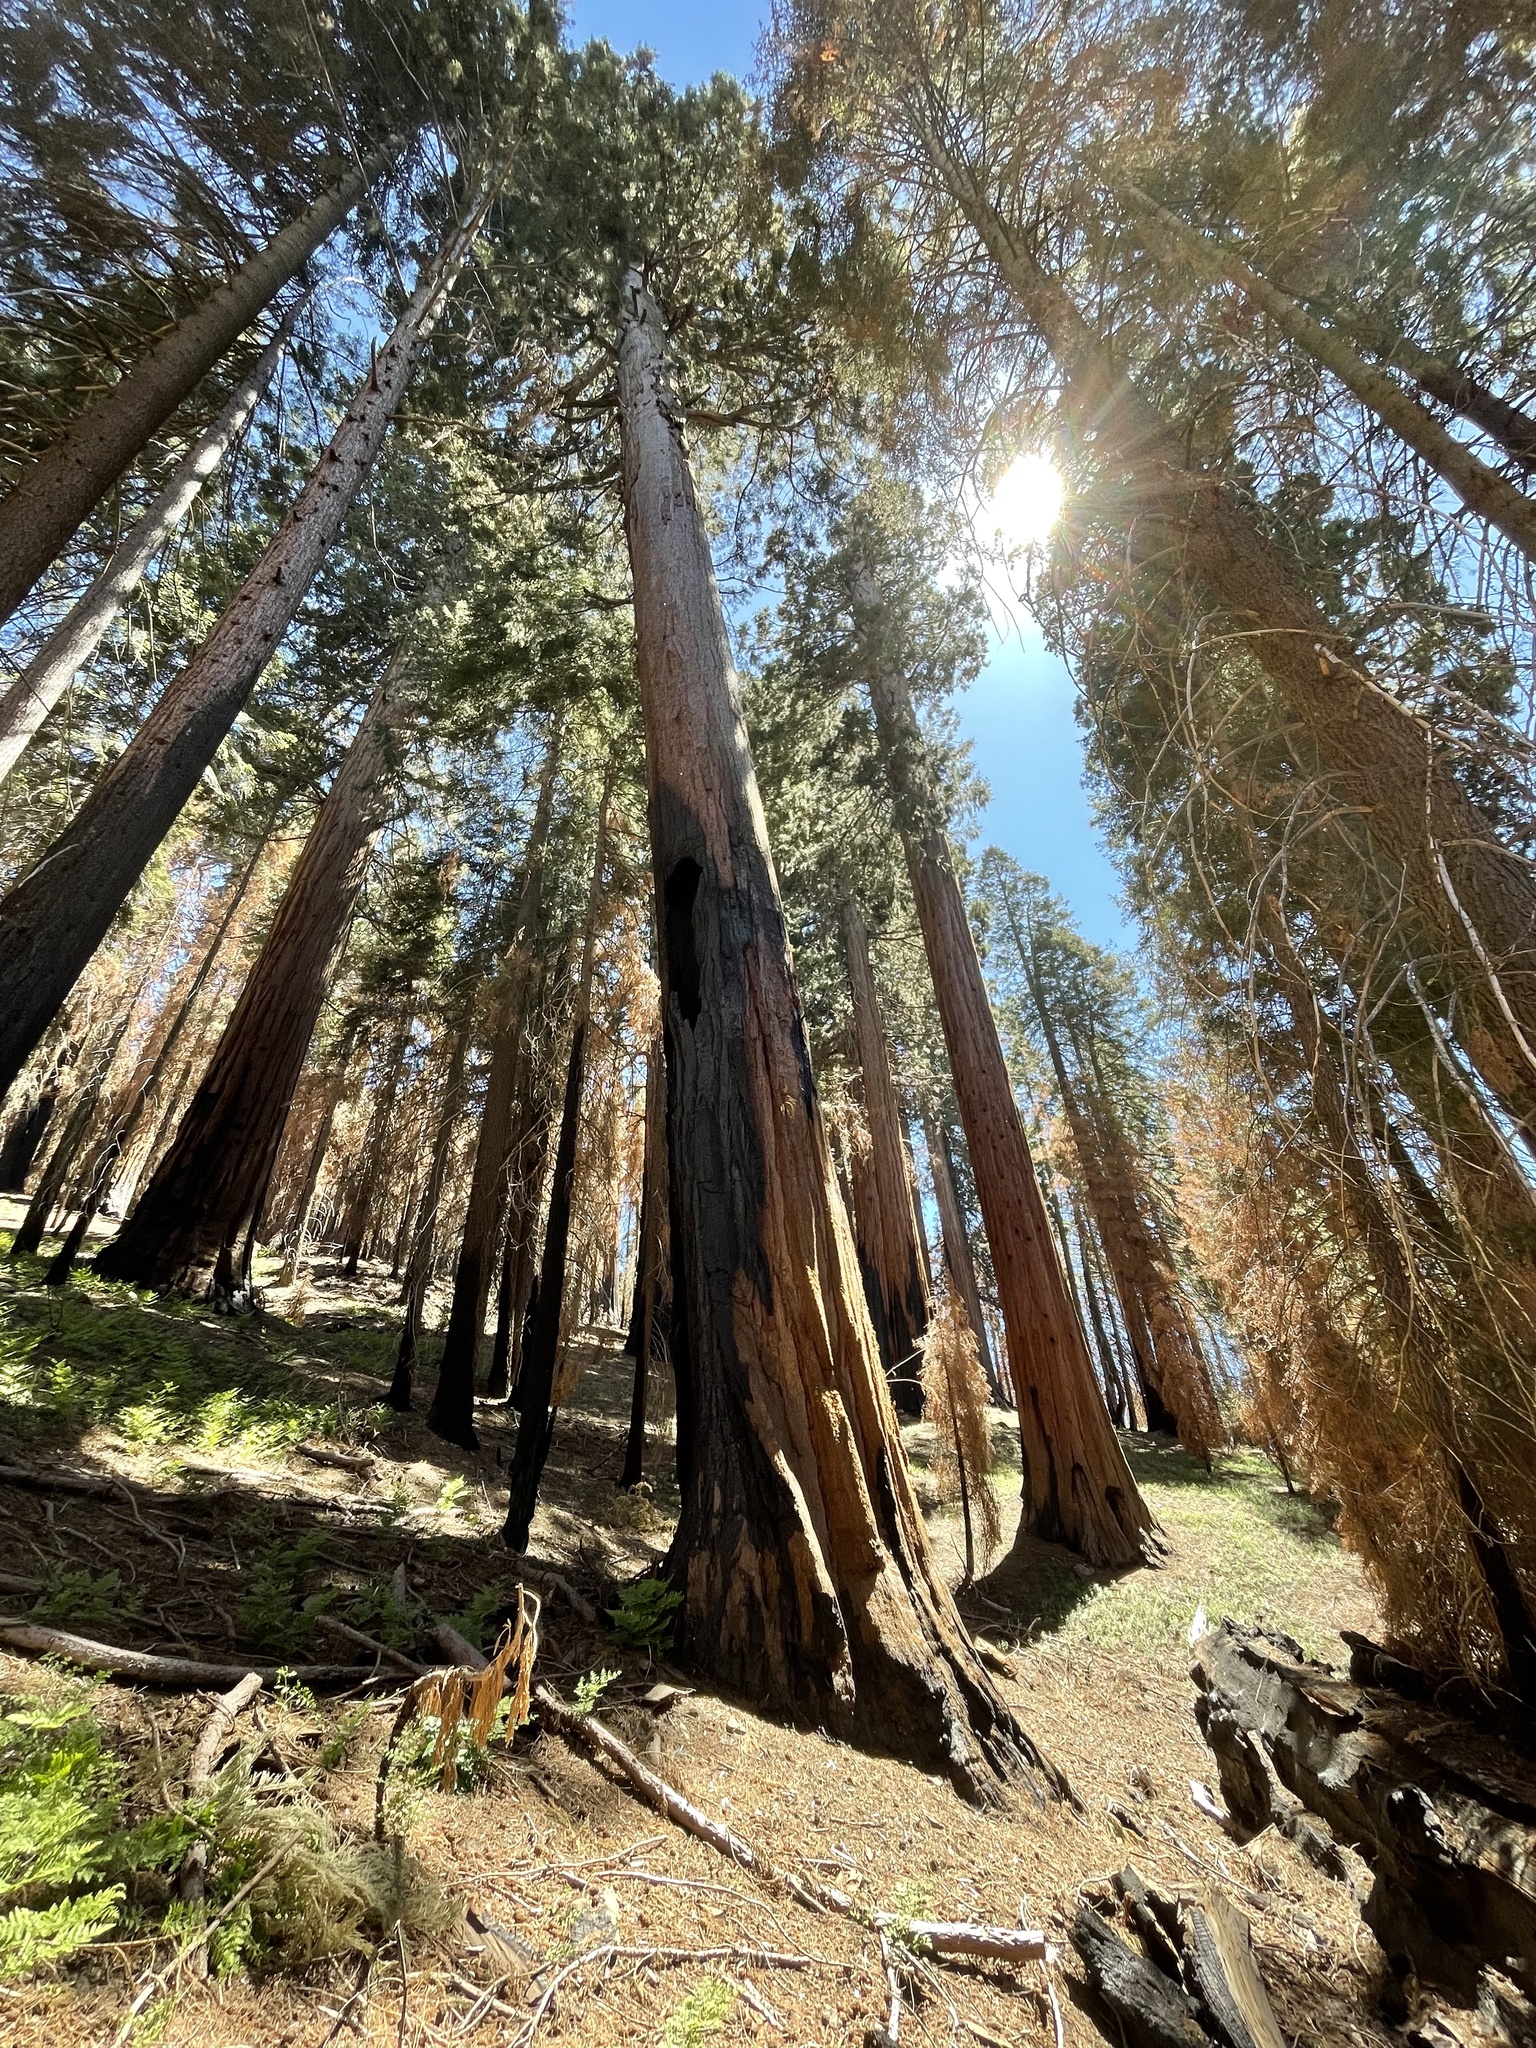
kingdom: Plantae
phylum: Tracheophyta
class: Pinopsida
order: Pinales
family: Cupressaceae
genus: Sequoiadendron
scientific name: Sequoiadendron giganteum
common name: Wellingtonia
